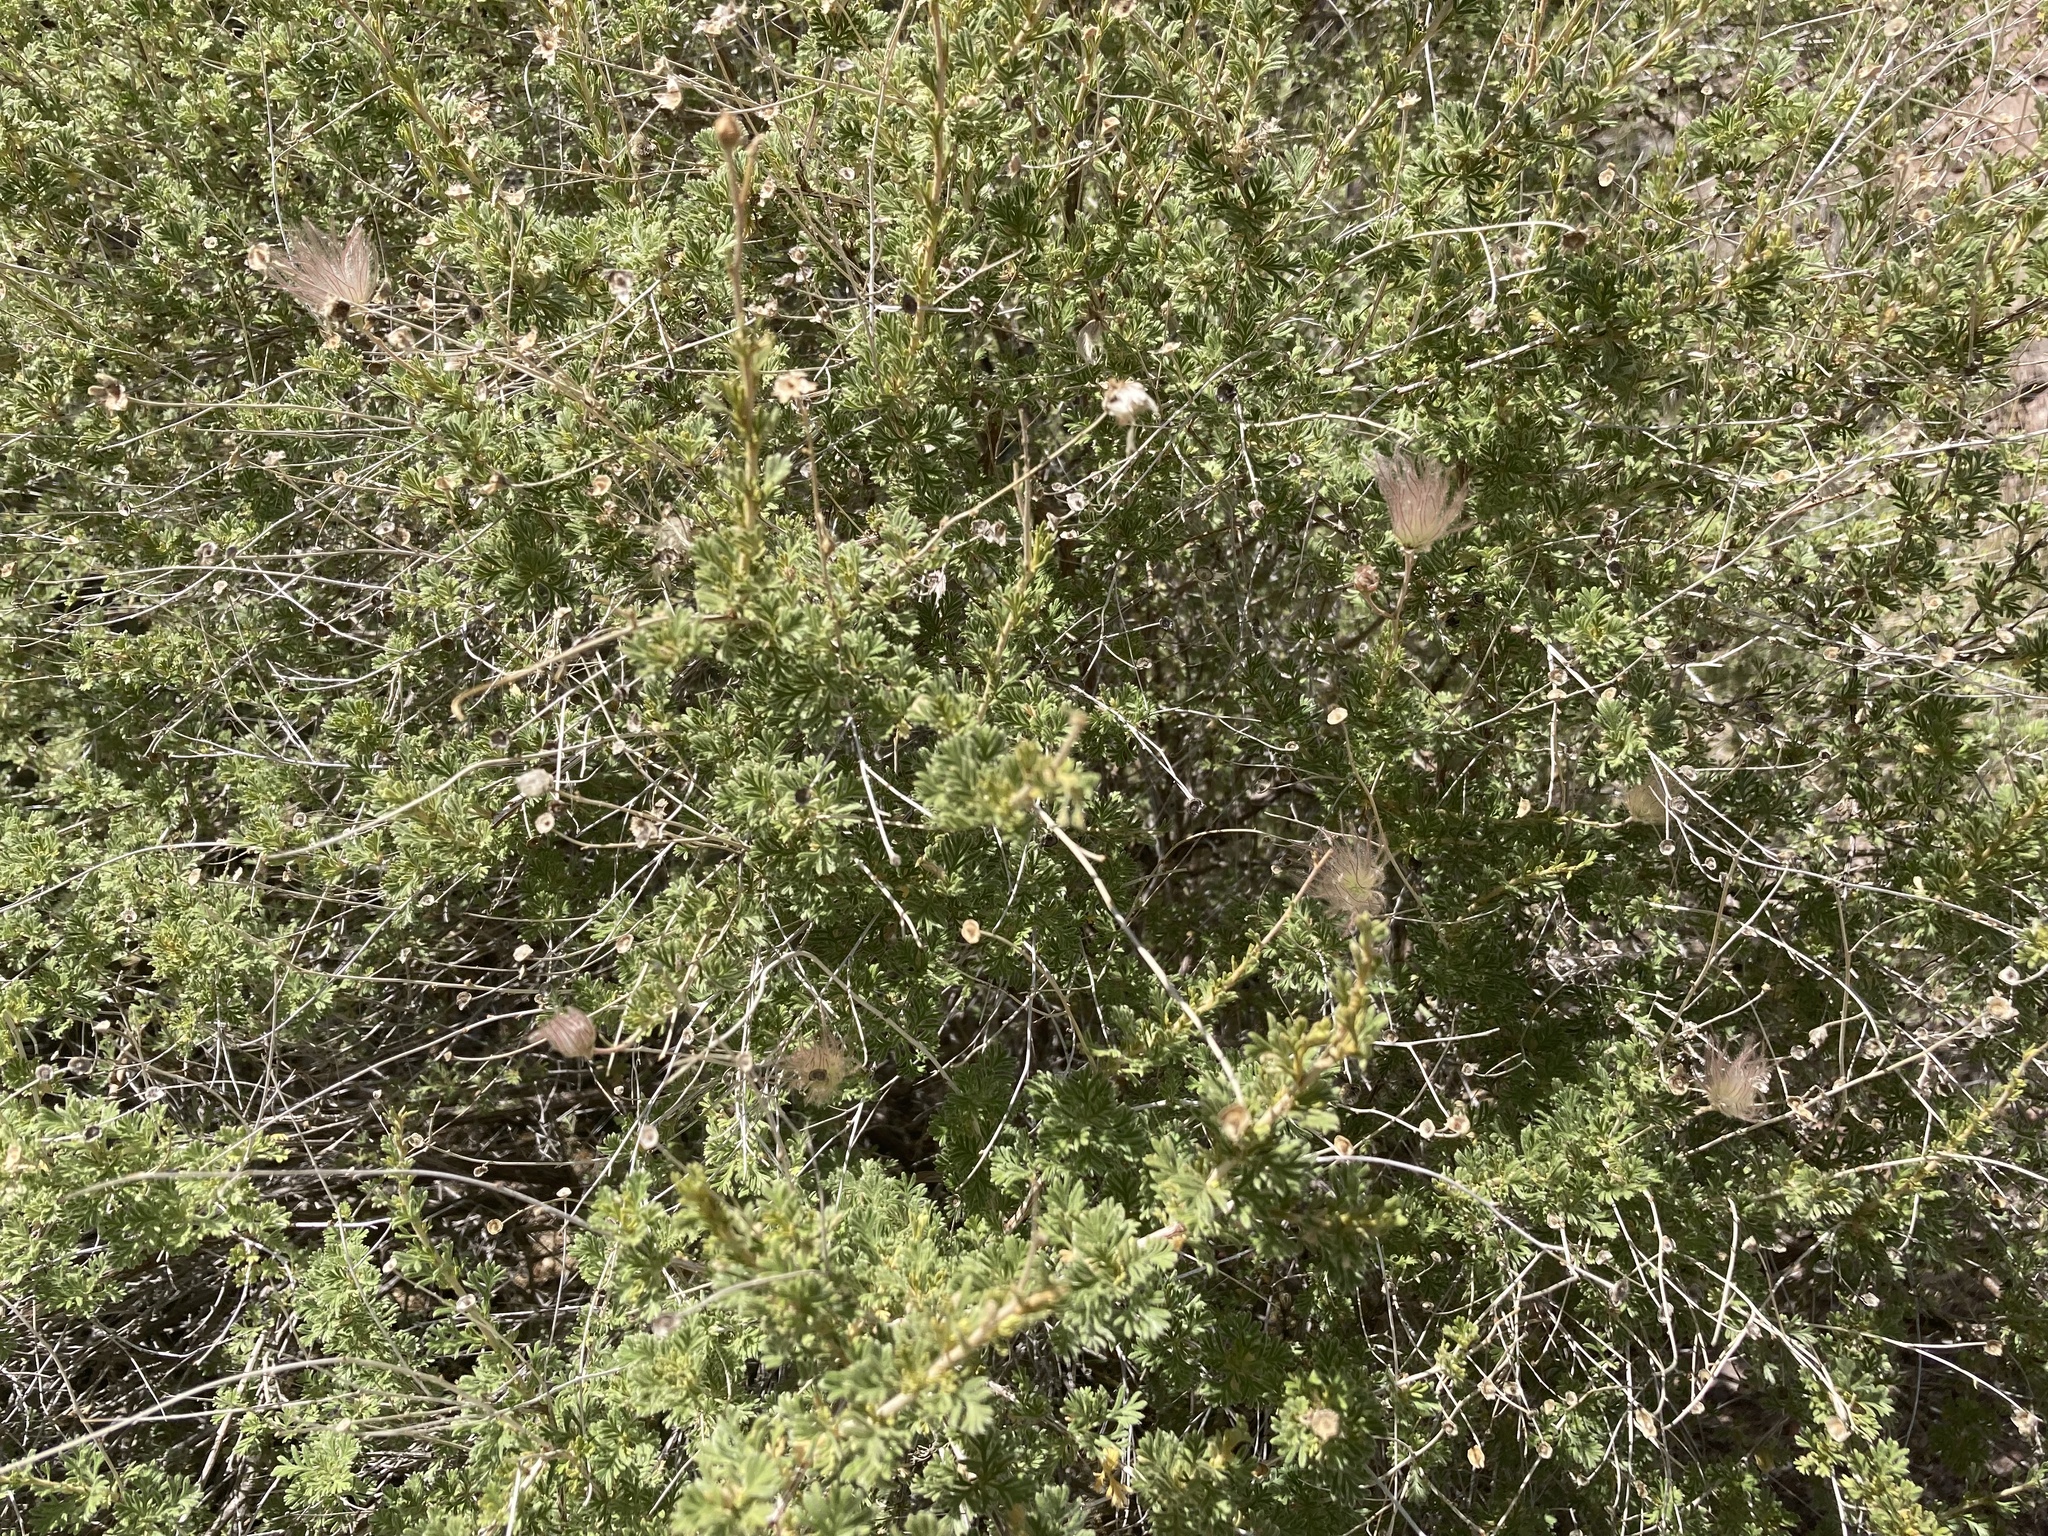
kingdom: Plantae
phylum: Tracheophyta
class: Magnoliopsida
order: Rosales
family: Rosaceae
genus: Fallugia
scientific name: Fallugia paradoxa
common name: Apache-plume
